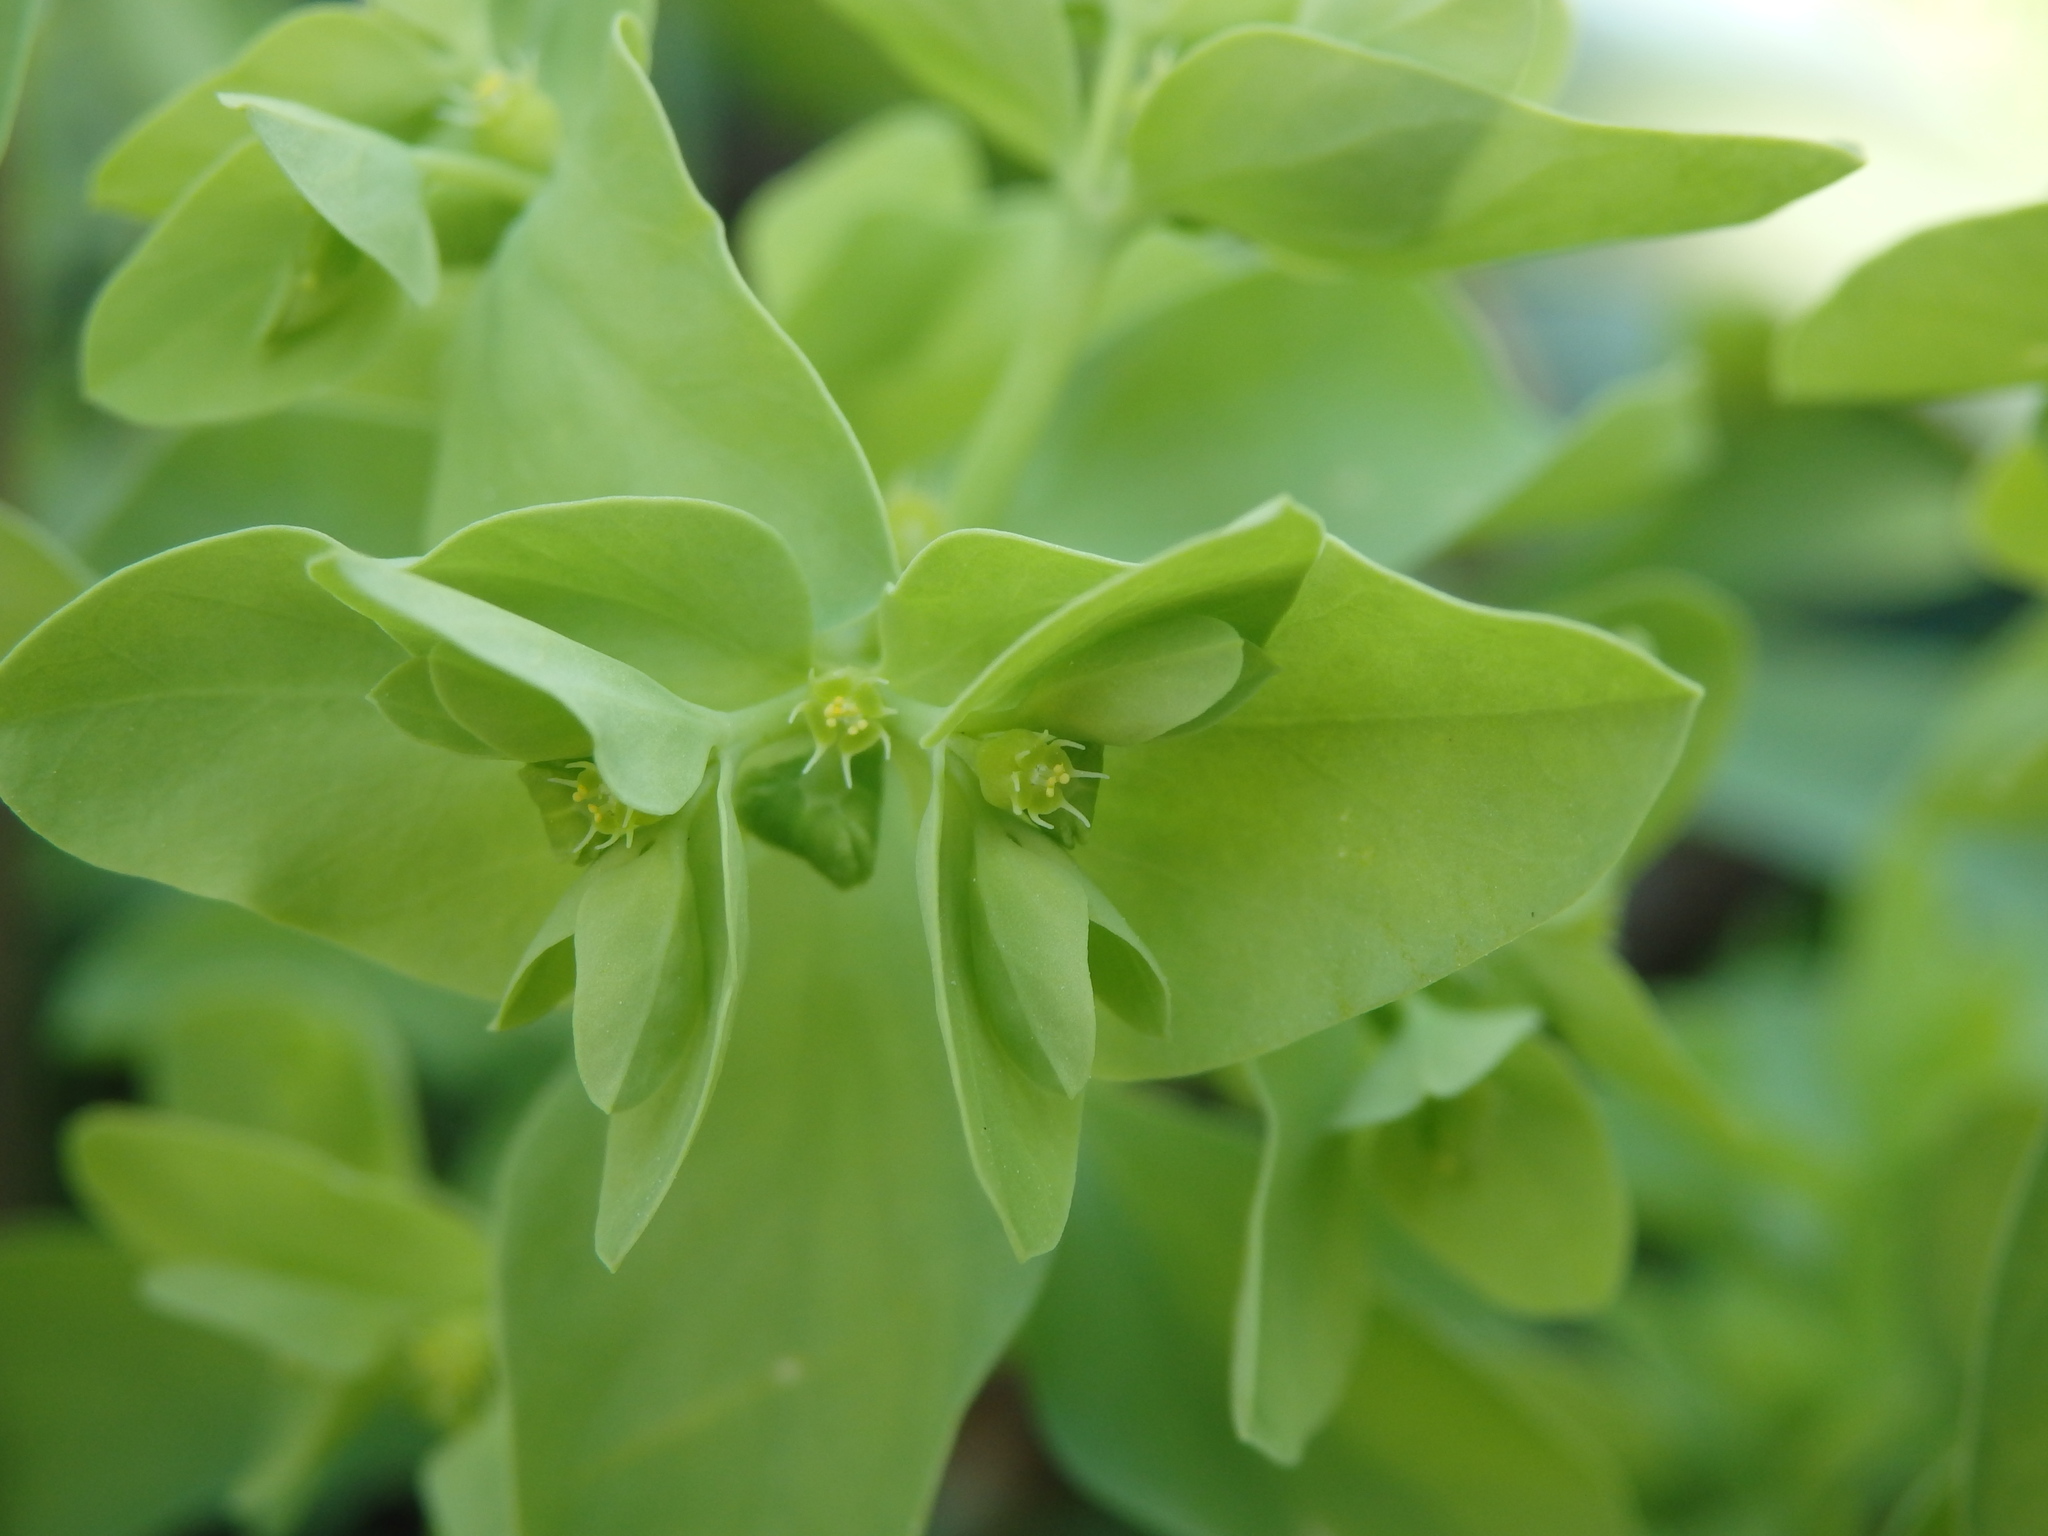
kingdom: Plantae
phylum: Tracheophyta
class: Magnoliopsida
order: Malpighiales
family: Euphorbiaceae
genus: Euphorbia
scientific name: Euphorbia peplus
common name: Petty spurge
